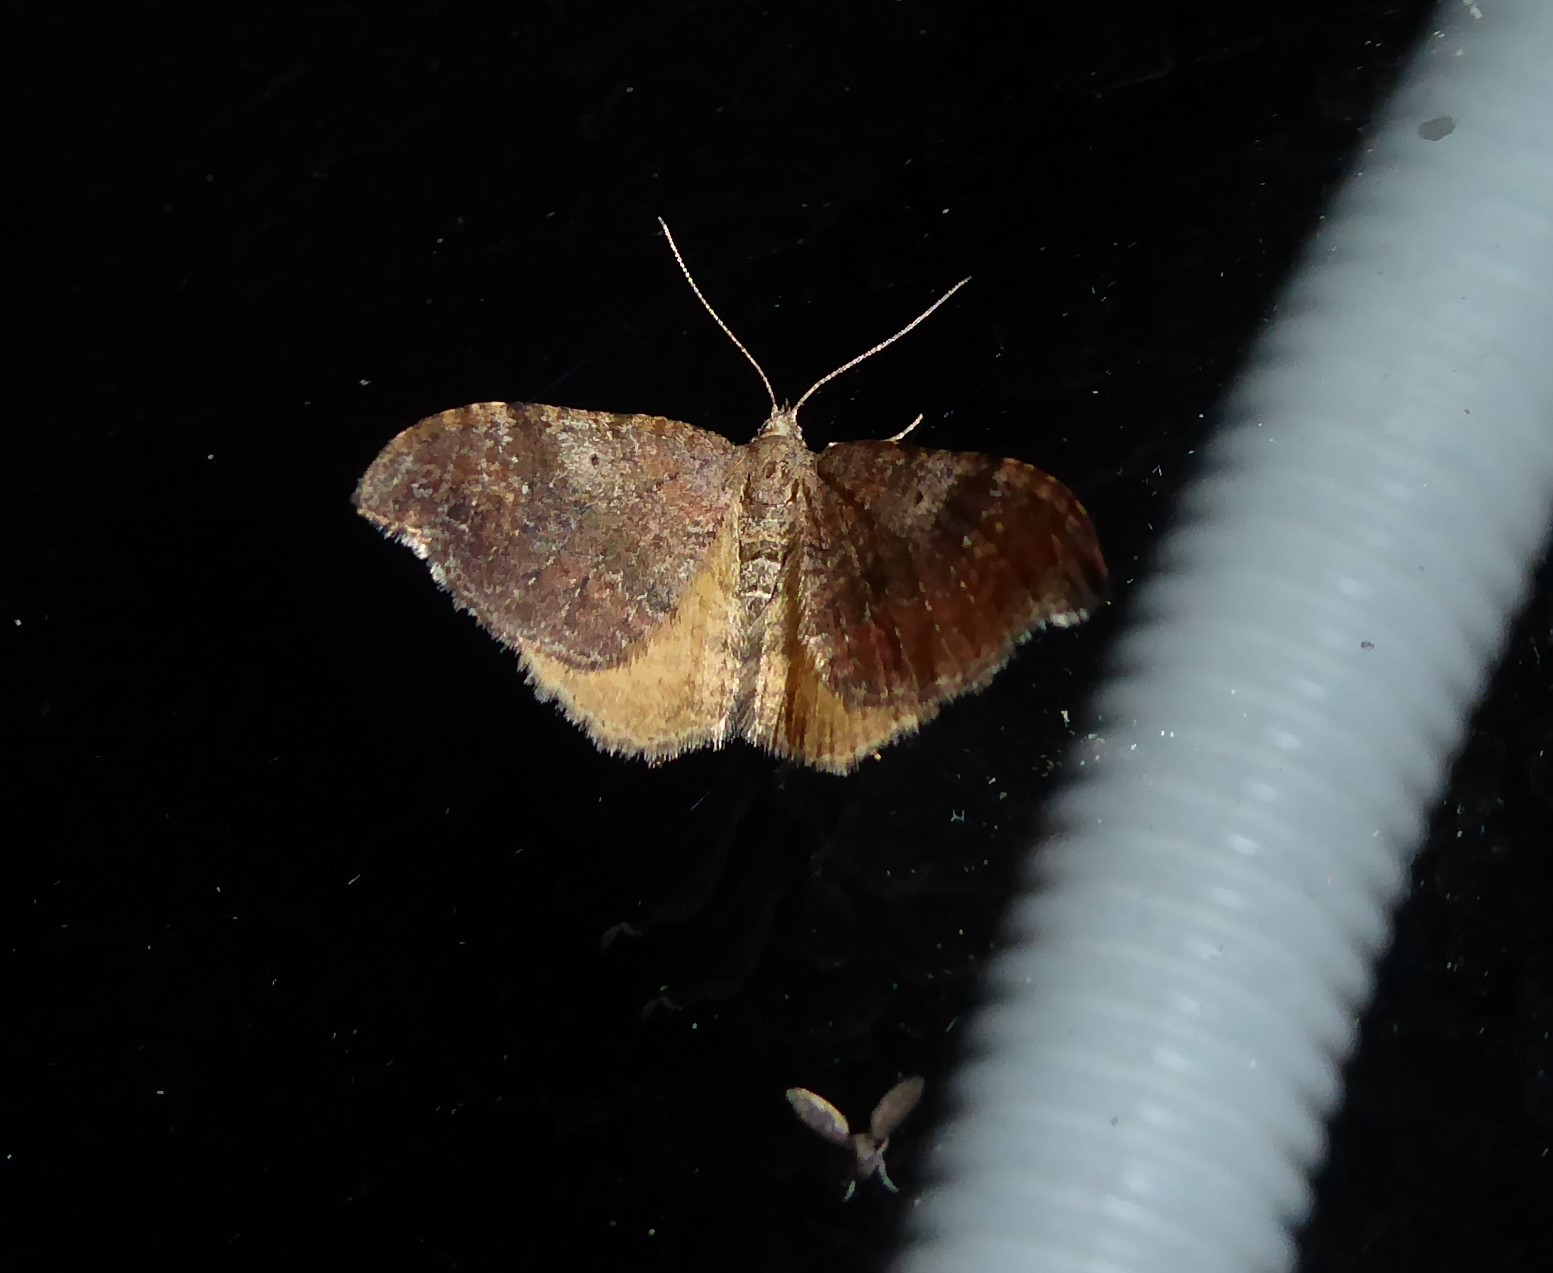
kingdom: Animalia
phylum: Arthropoda
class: Insecta
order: Lepidoptera
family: Geometridae
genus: Homodotis
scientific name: Homodotis megaspilata
